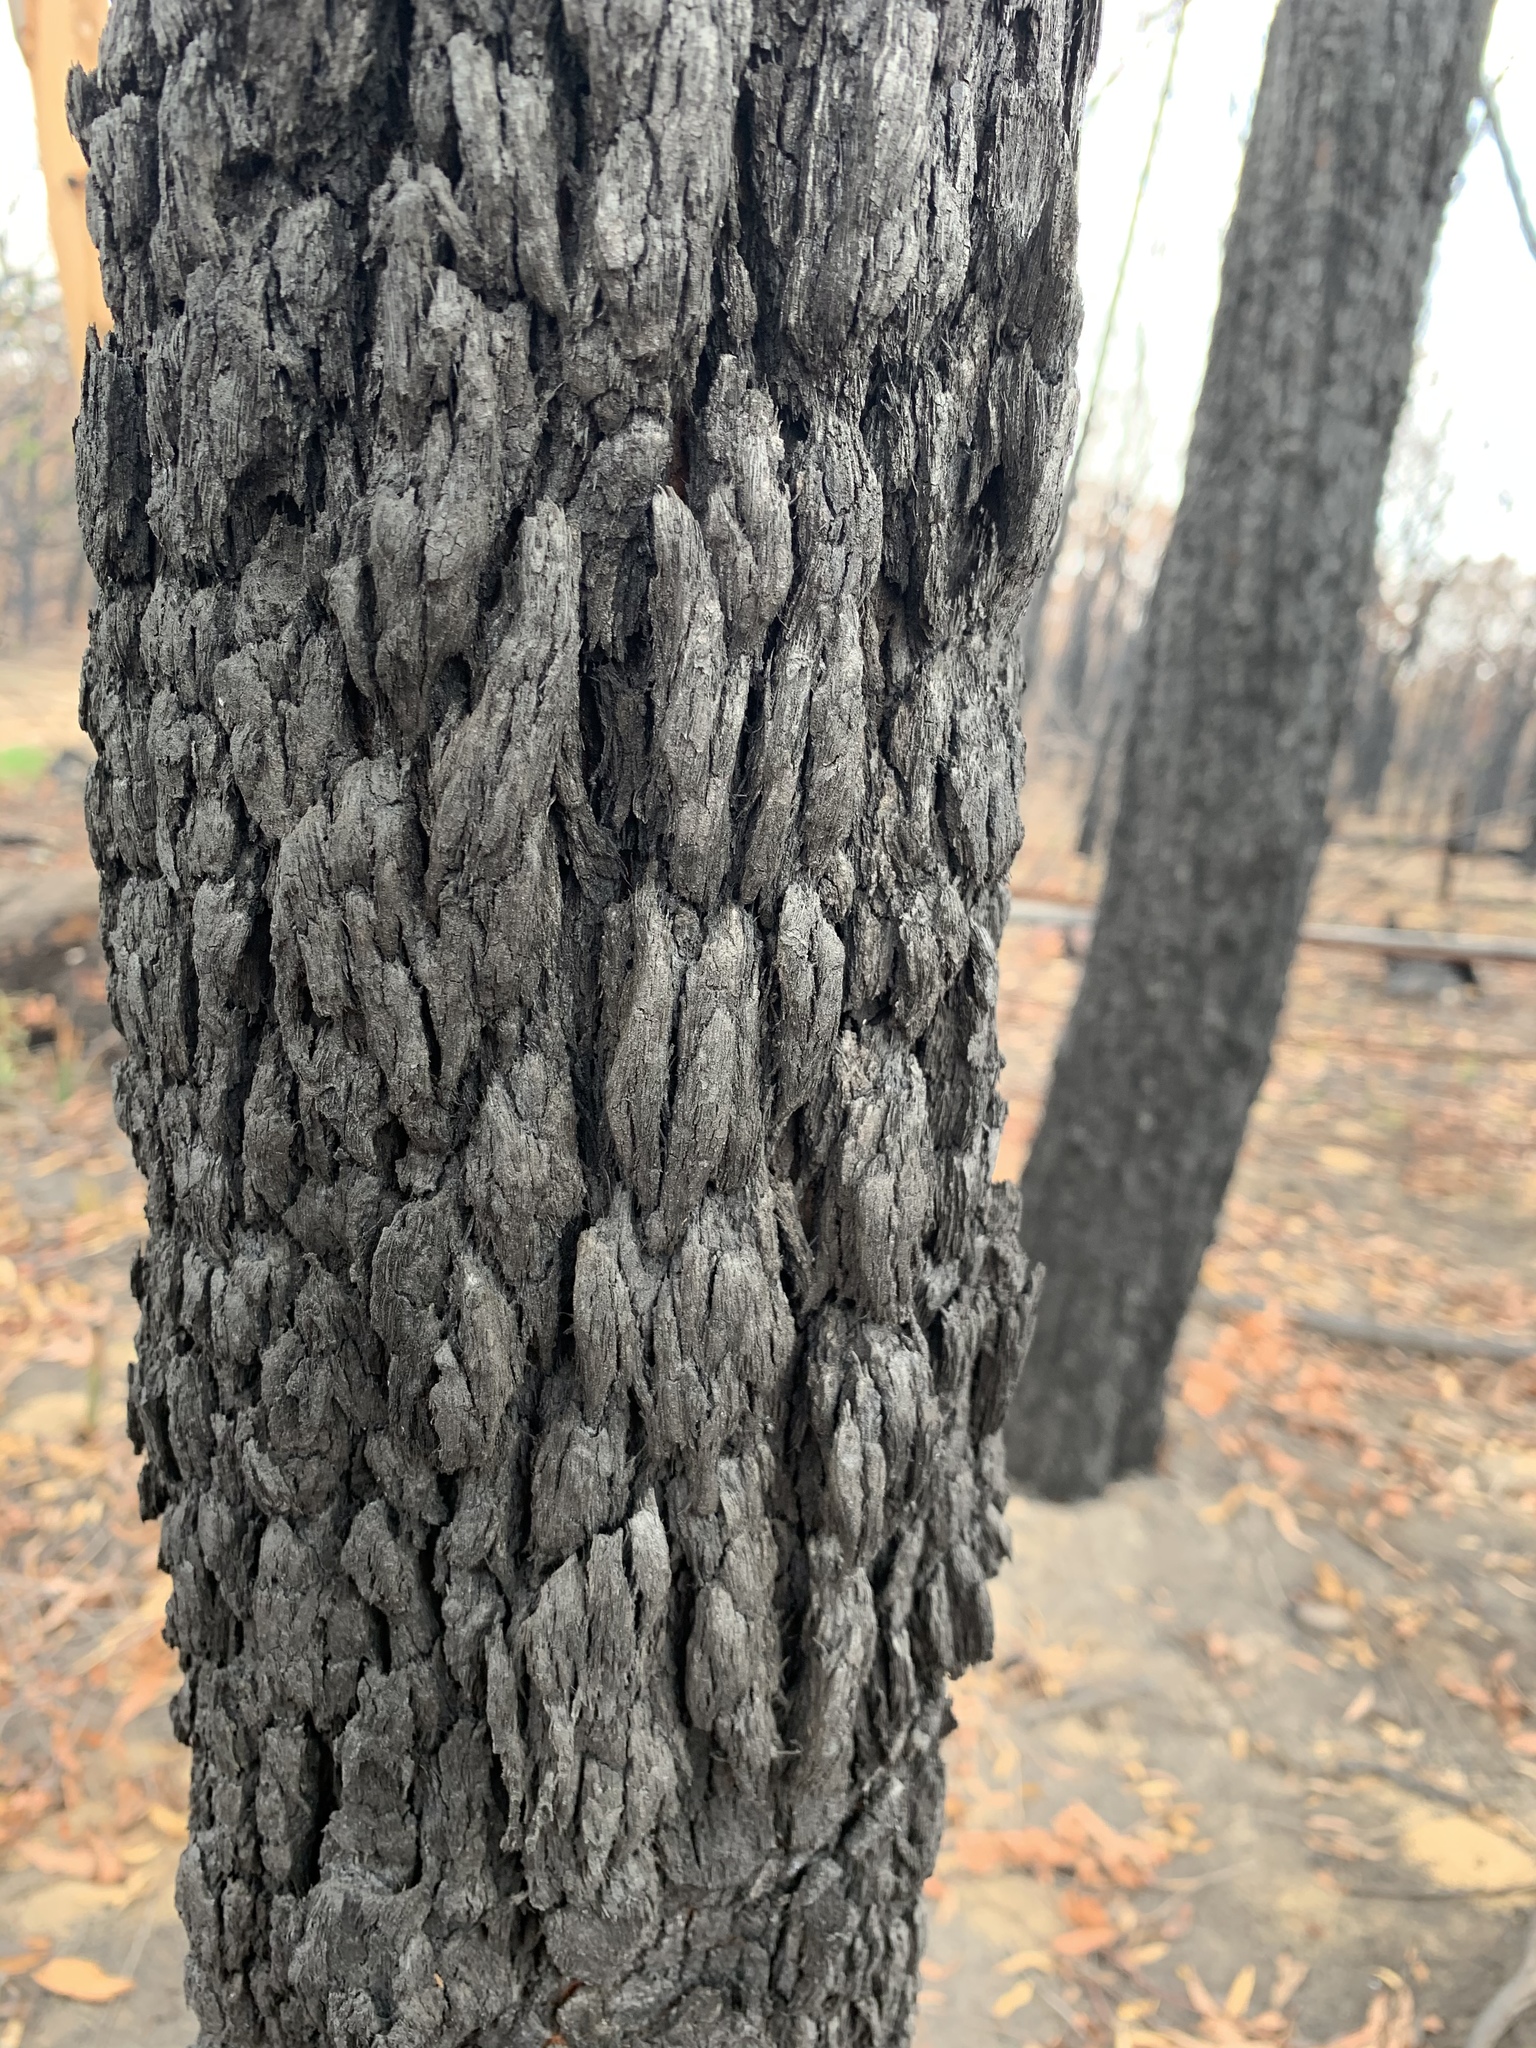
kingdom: Plantae
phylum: Tracheophyta
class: Magnoliopsida
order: Myrtales
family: Myrtaceae
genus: Corymbia
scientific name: Corymbia gummifera
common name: Red bloodwood
